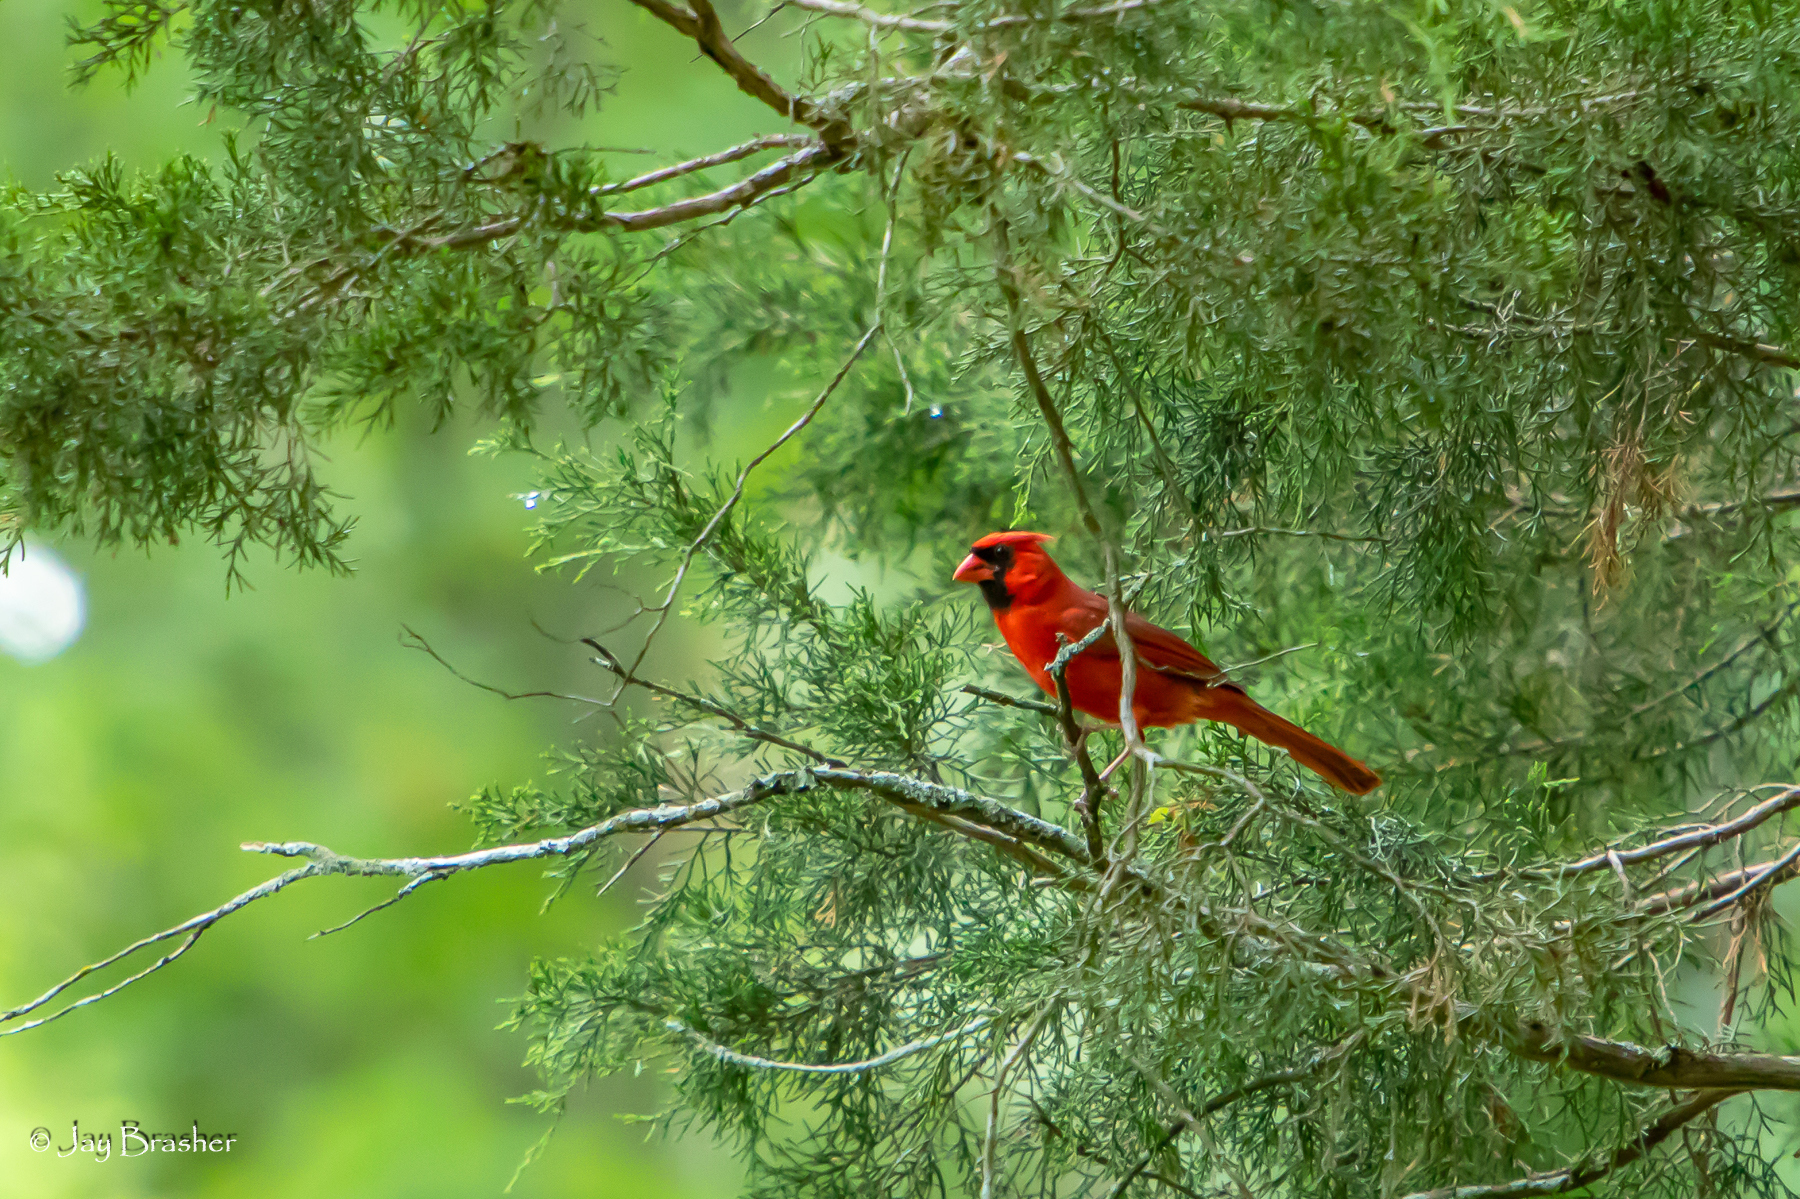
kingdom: Animalia
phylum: Chordata
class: Aves
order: Passeriformes
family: Cardinalidae
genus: Cardinalis
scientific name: Cardinalis cardinalis
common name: Northern cardinal
